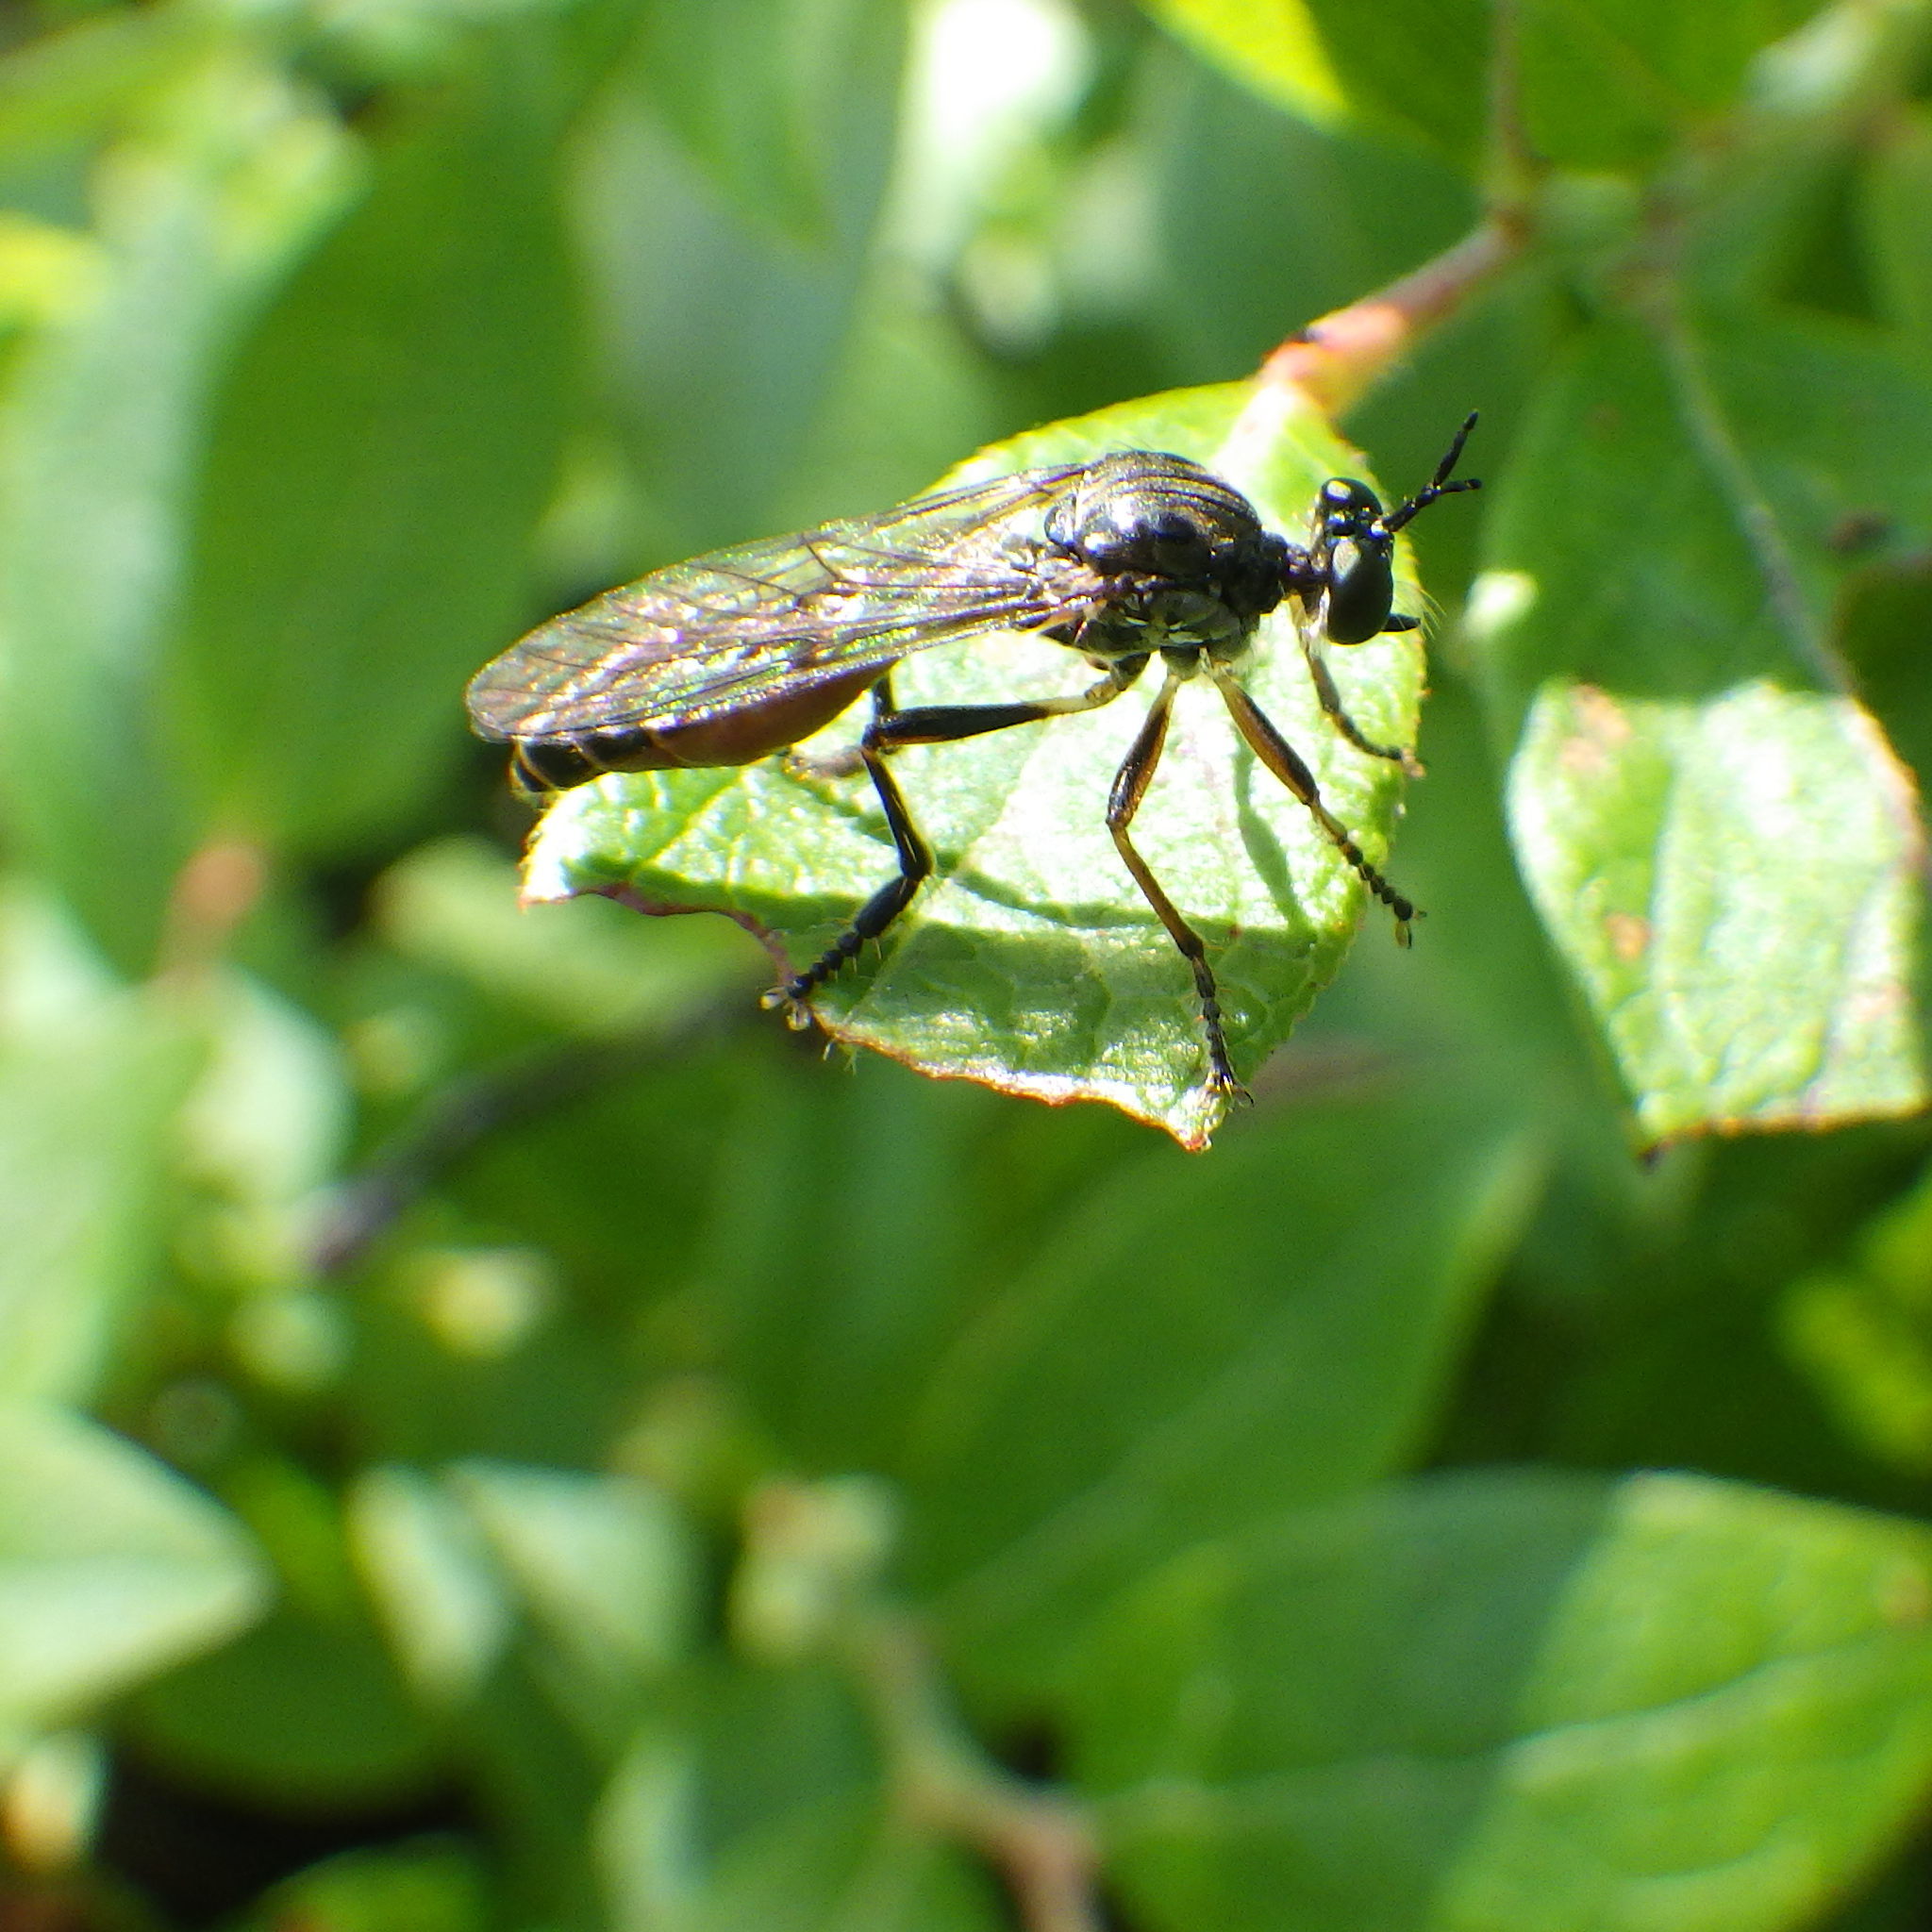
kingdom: Animalia
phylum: Arthropoda
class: Insecta
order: Diptera
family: Asilidae
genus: Dioctria
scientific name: Dioctria hyalipennis
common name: Stripe-legged robberfly
